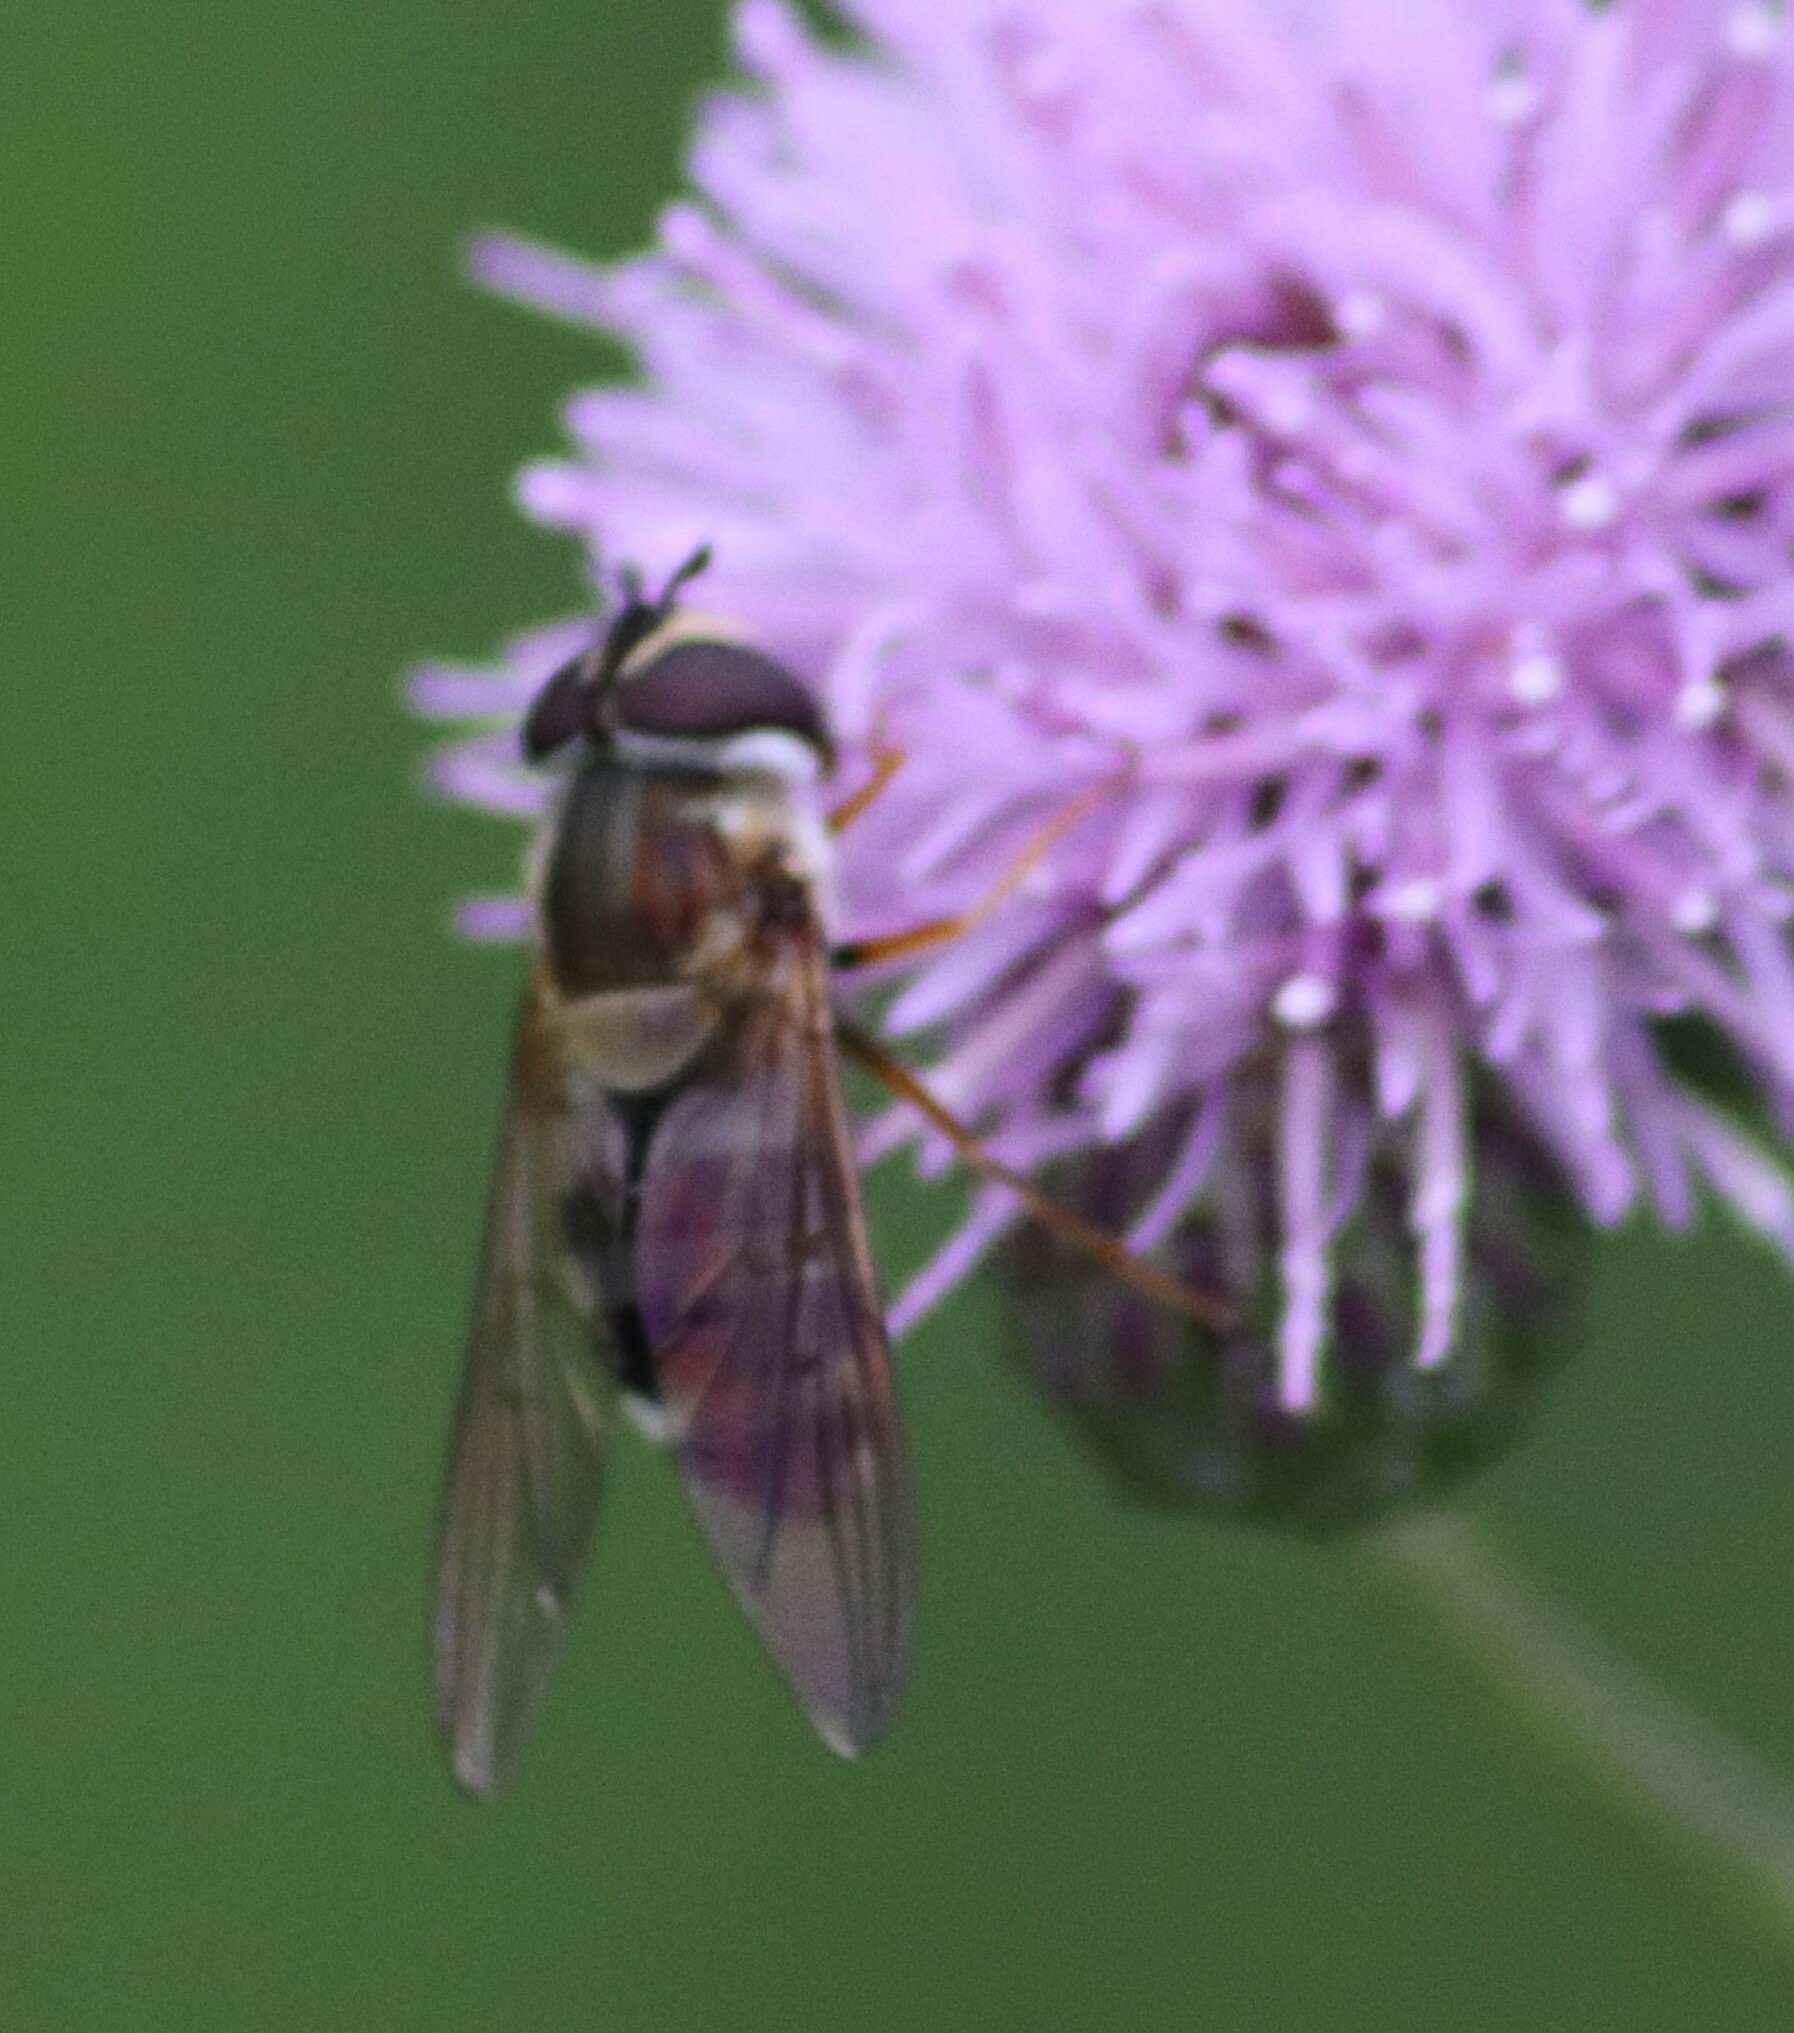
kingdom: Animalia
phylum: Arthropoda
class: Insecta
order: Diptera
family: Syrphidae
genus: Epistrophe
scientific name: Epistrophe grossulariae
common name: Black-horned smoothtail
